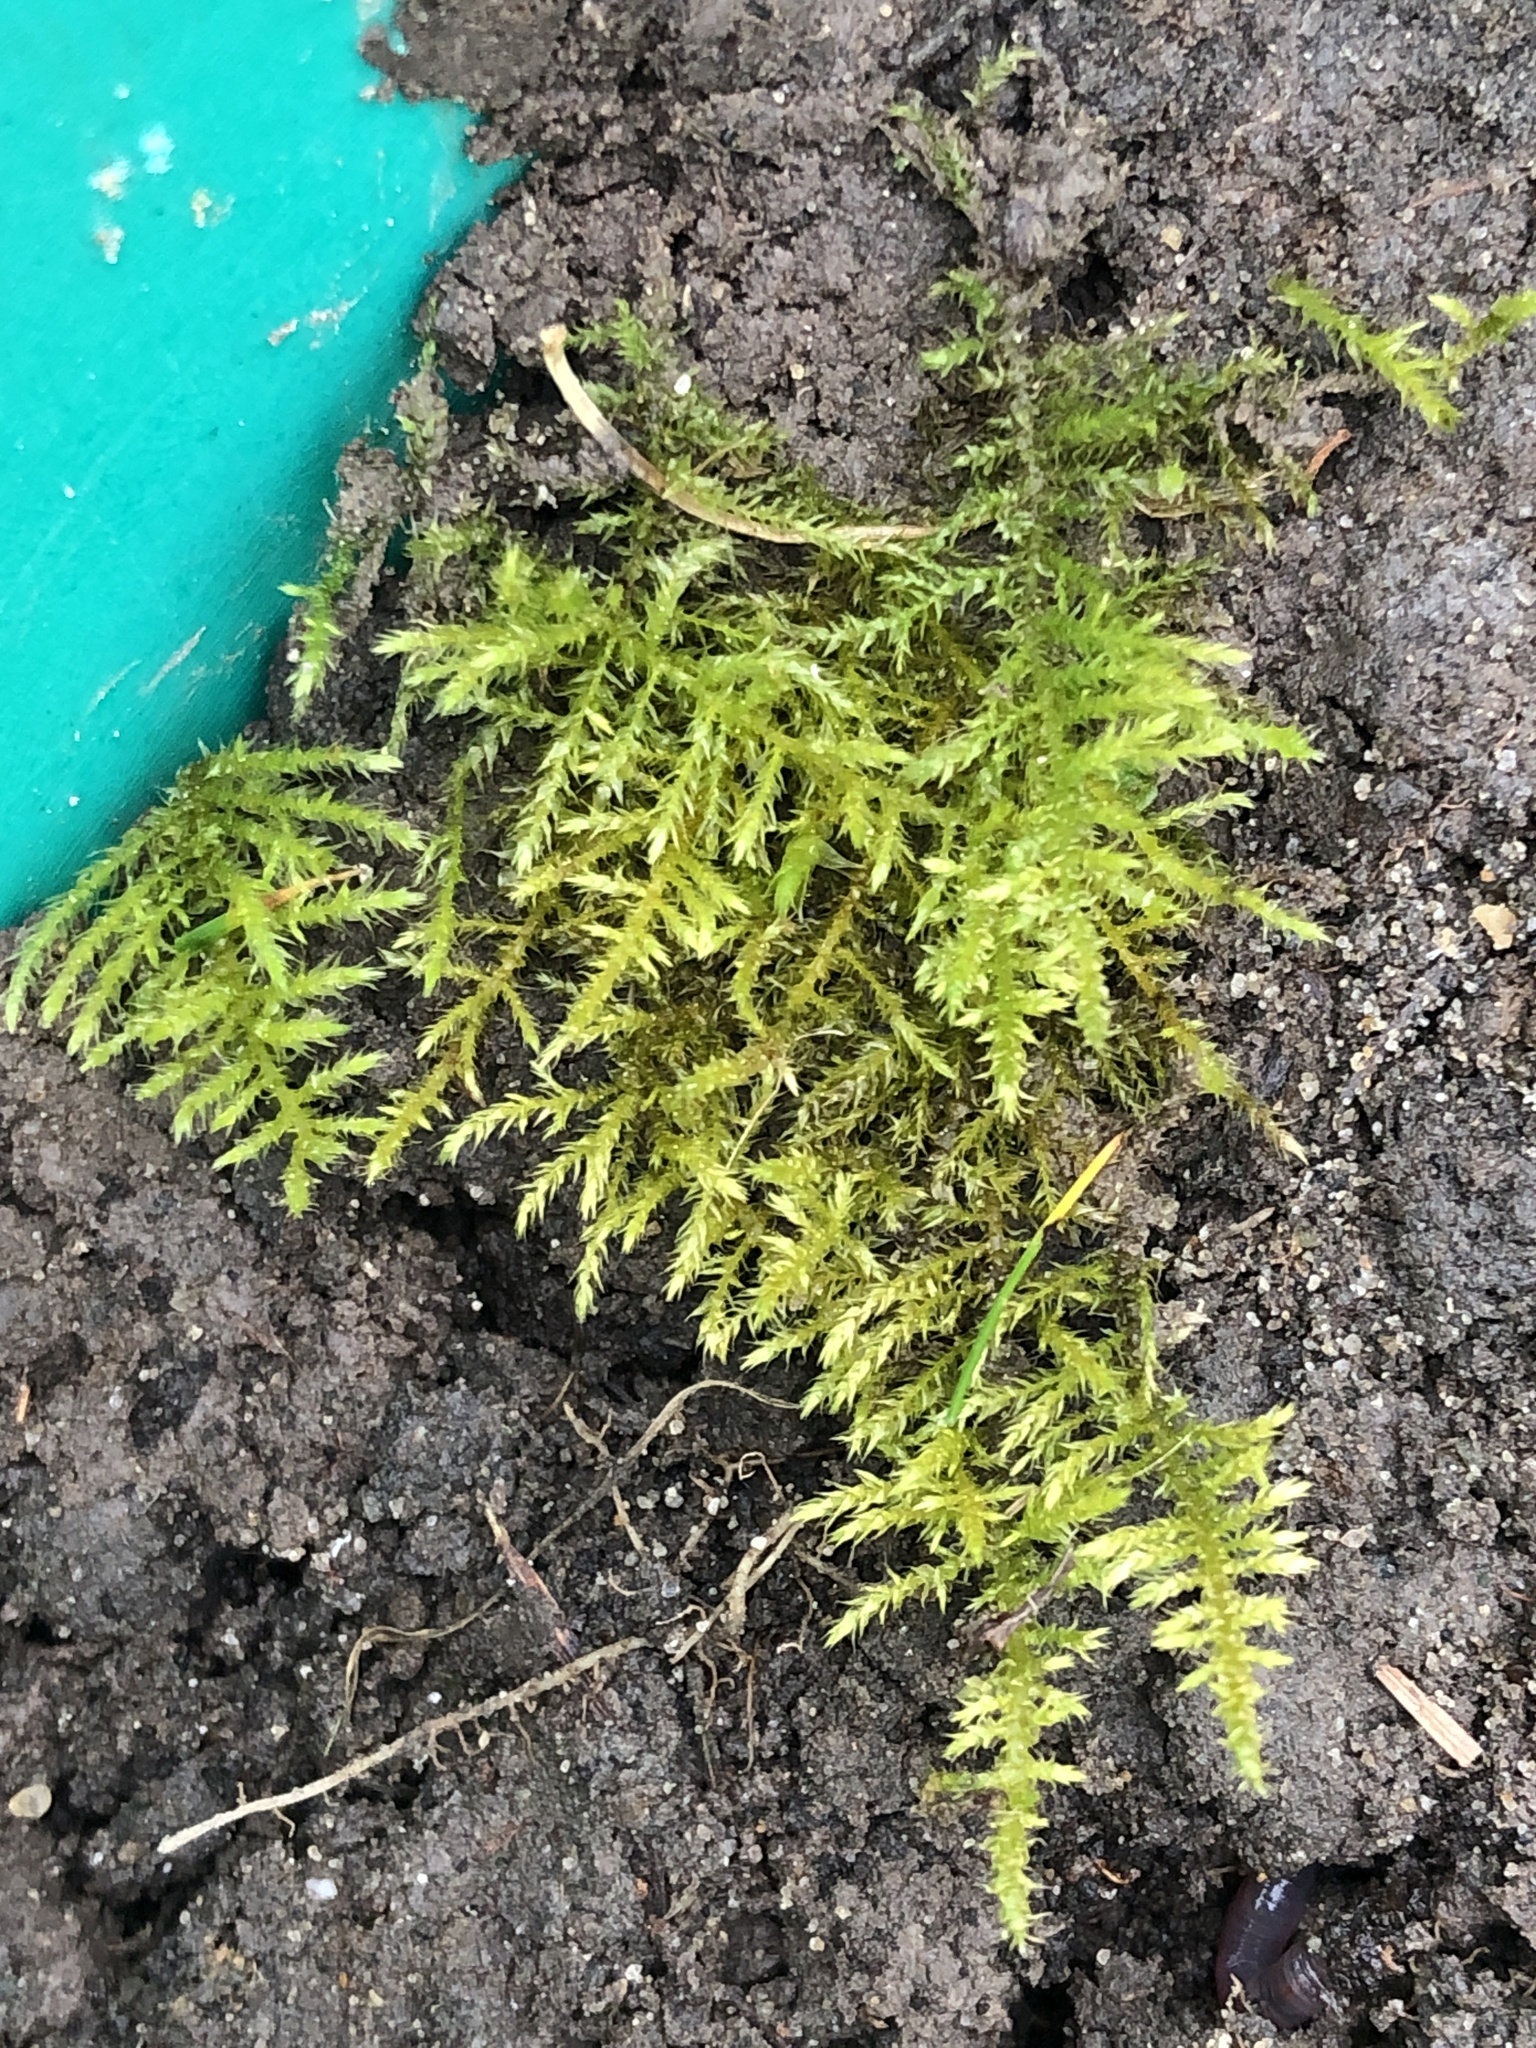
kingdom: Plantae
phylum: Bryophyta
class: Bryopsida
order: Hypnales
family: Brachytheciaceae
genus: Kindbergia
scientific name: Kindbergia praelonga
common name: Slender beaked moss
